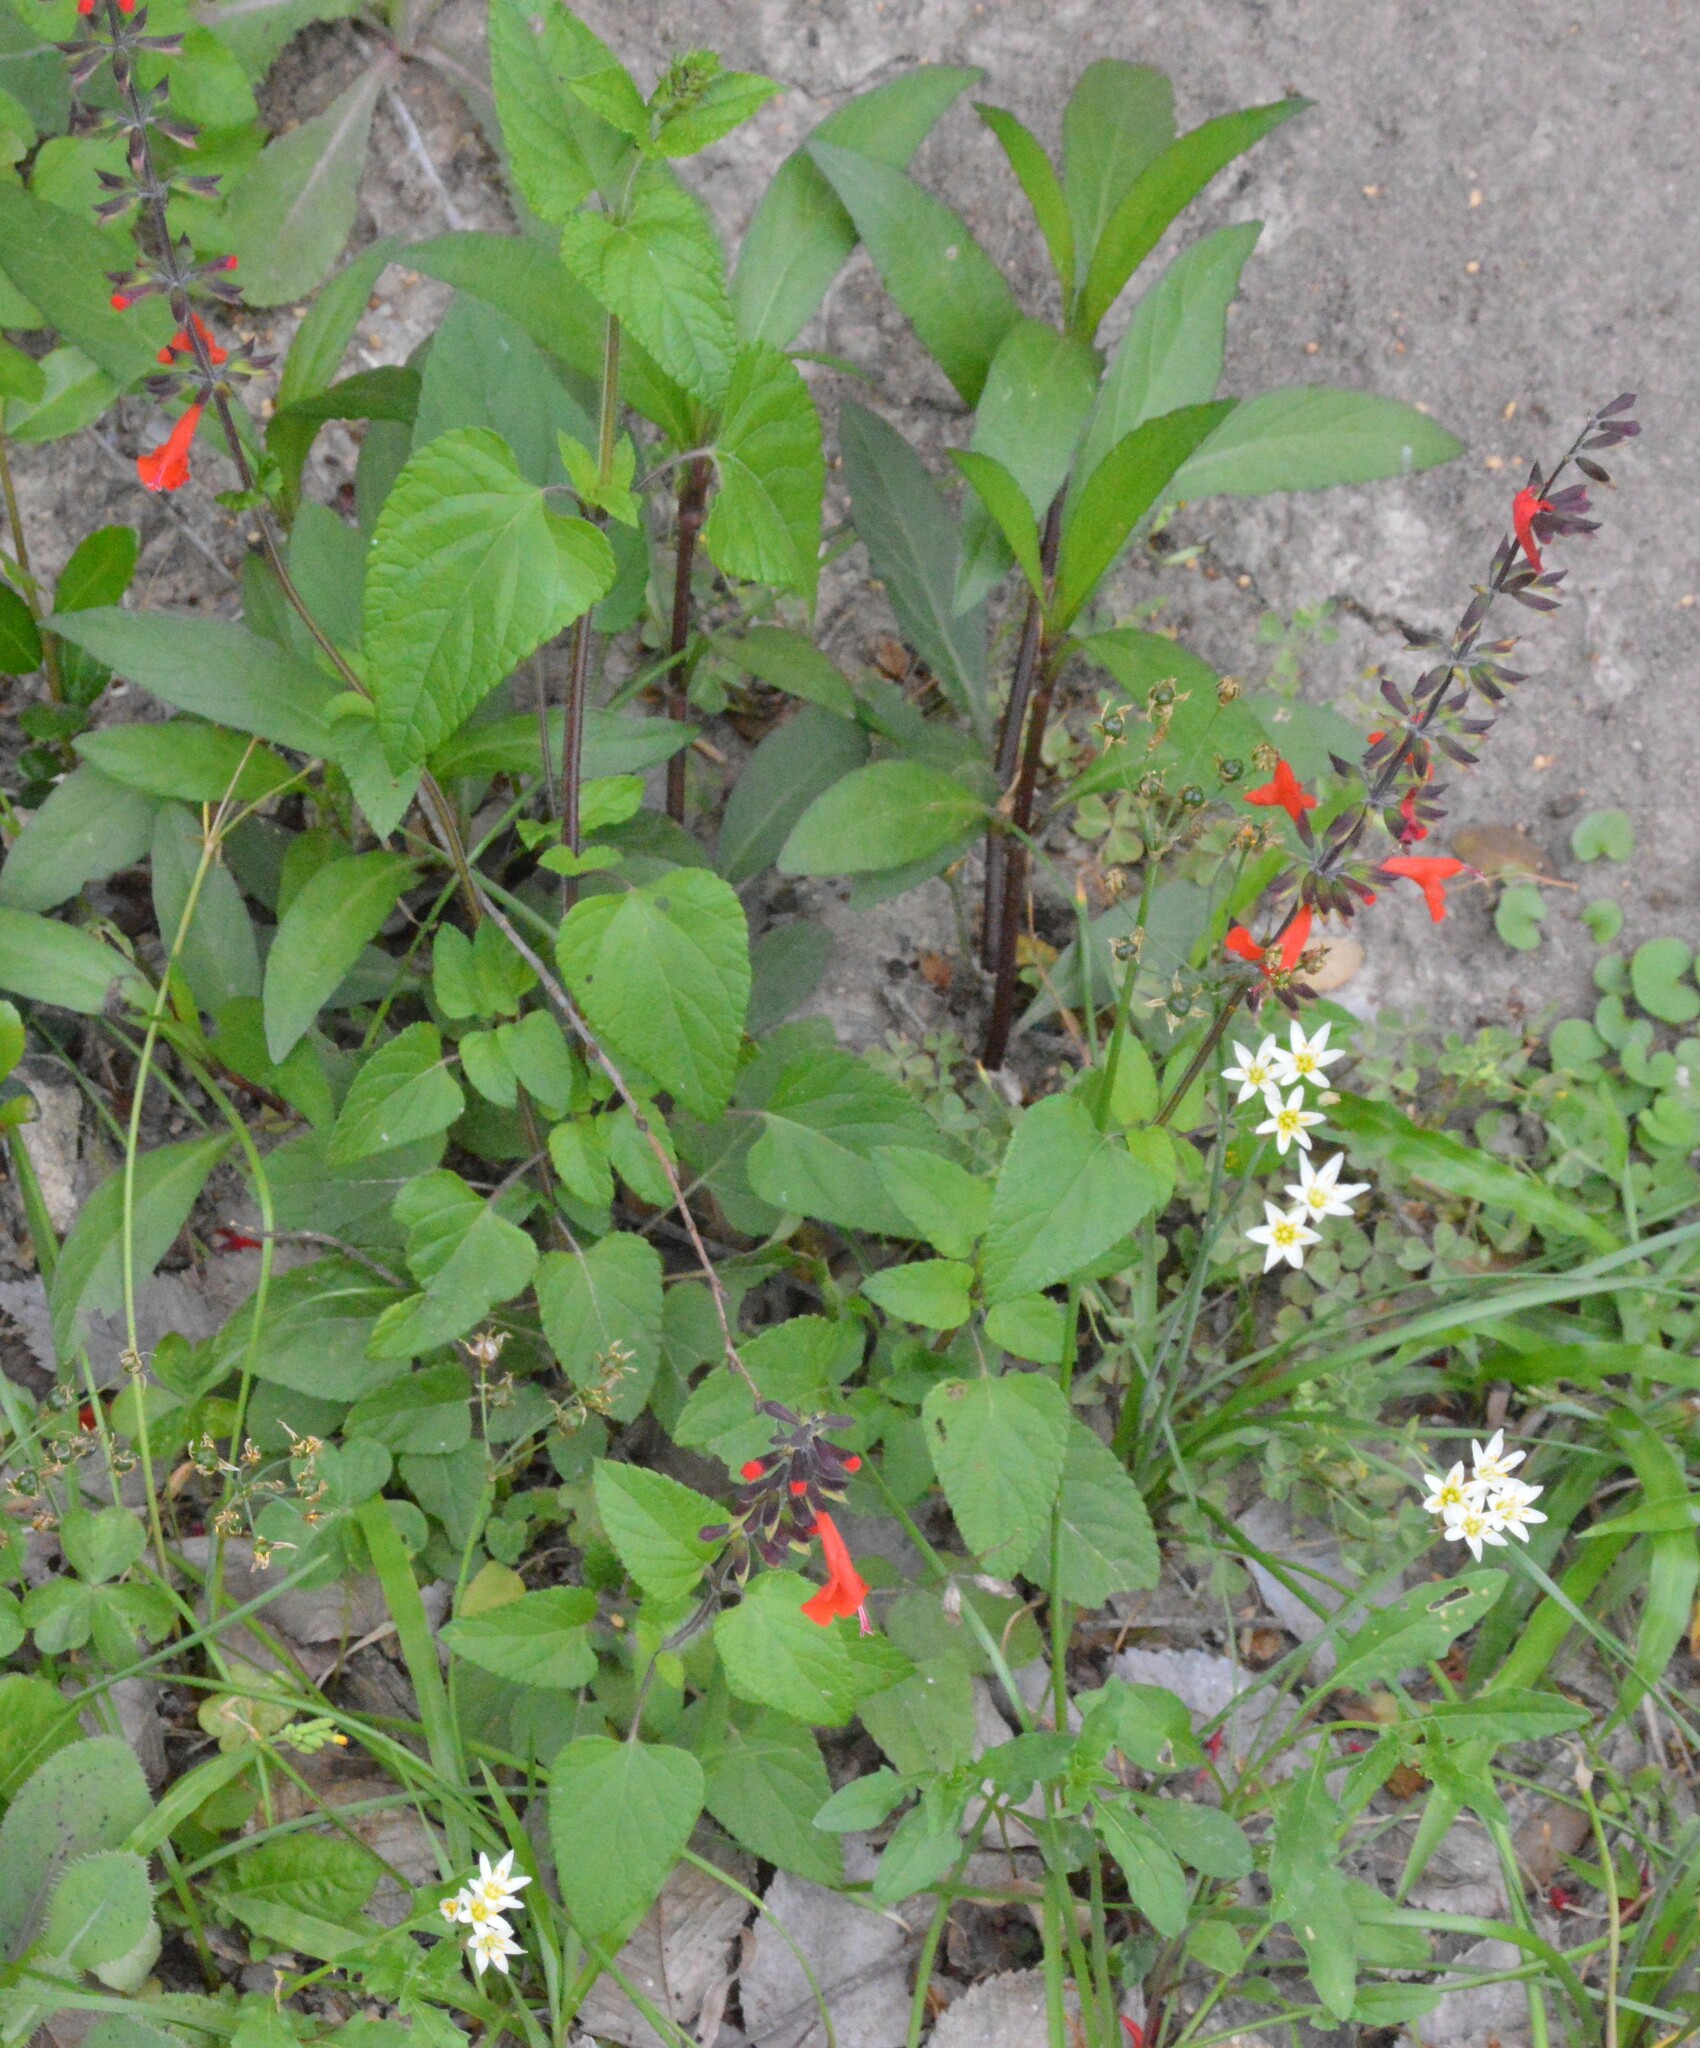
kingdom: Plantae
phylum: Tracheophyta
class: Magnoliopsida
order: Lamiales
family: Lamiaceae
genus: Salvia
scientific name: Salvia coccinea
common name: Blood sage
